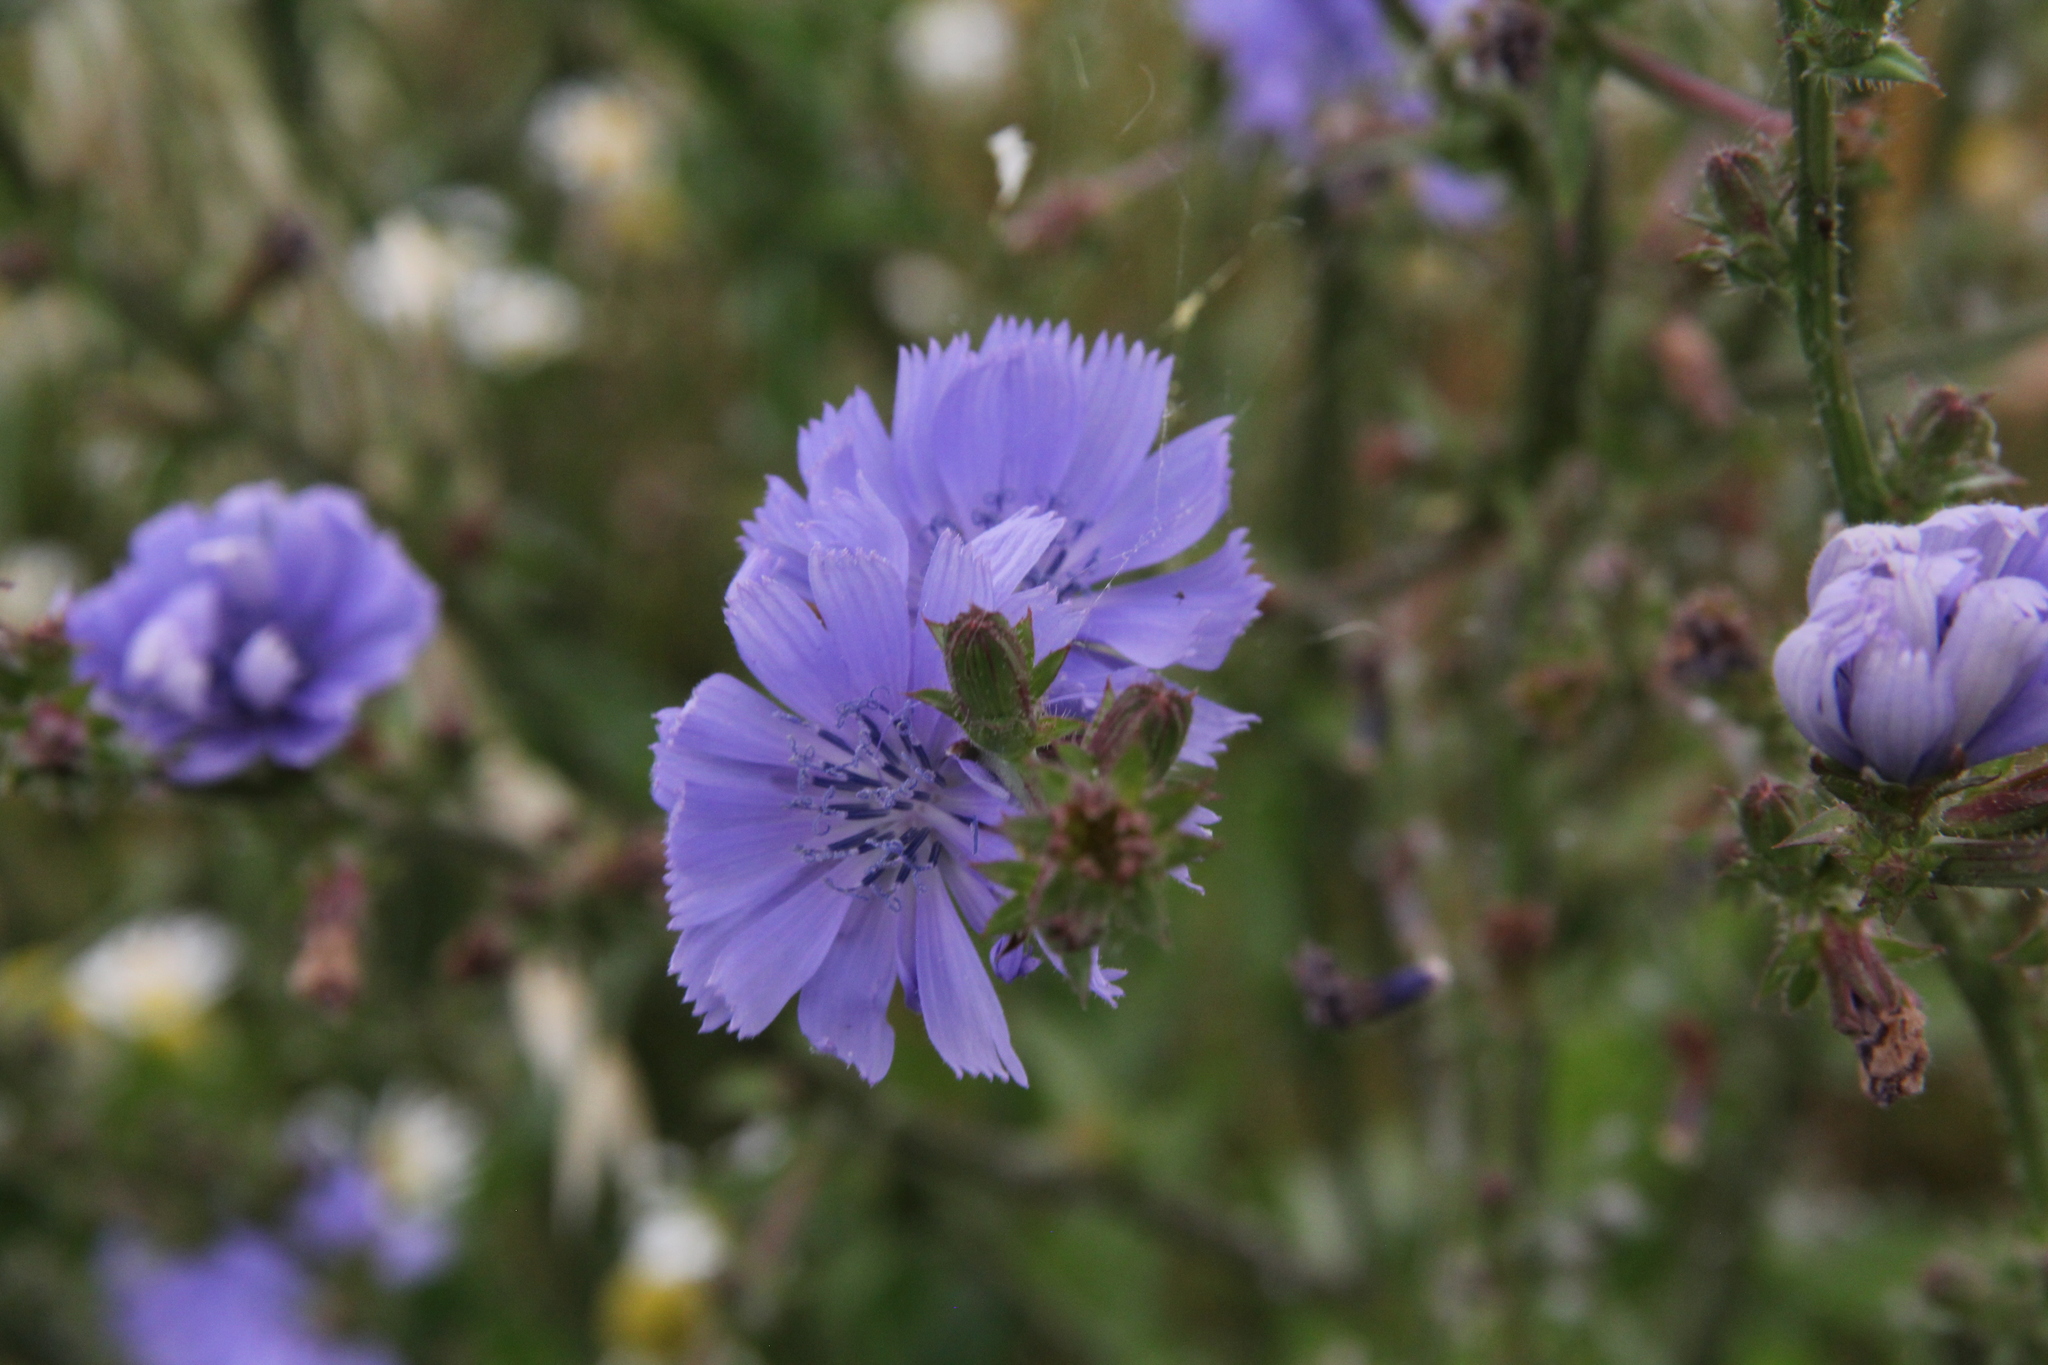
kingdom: Plantae
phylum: Tracheophyta
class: Magnoliopsida
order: Asterales
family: Asteraceae
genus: Cichorium
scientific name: Cichorium intybus
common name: Chicory
